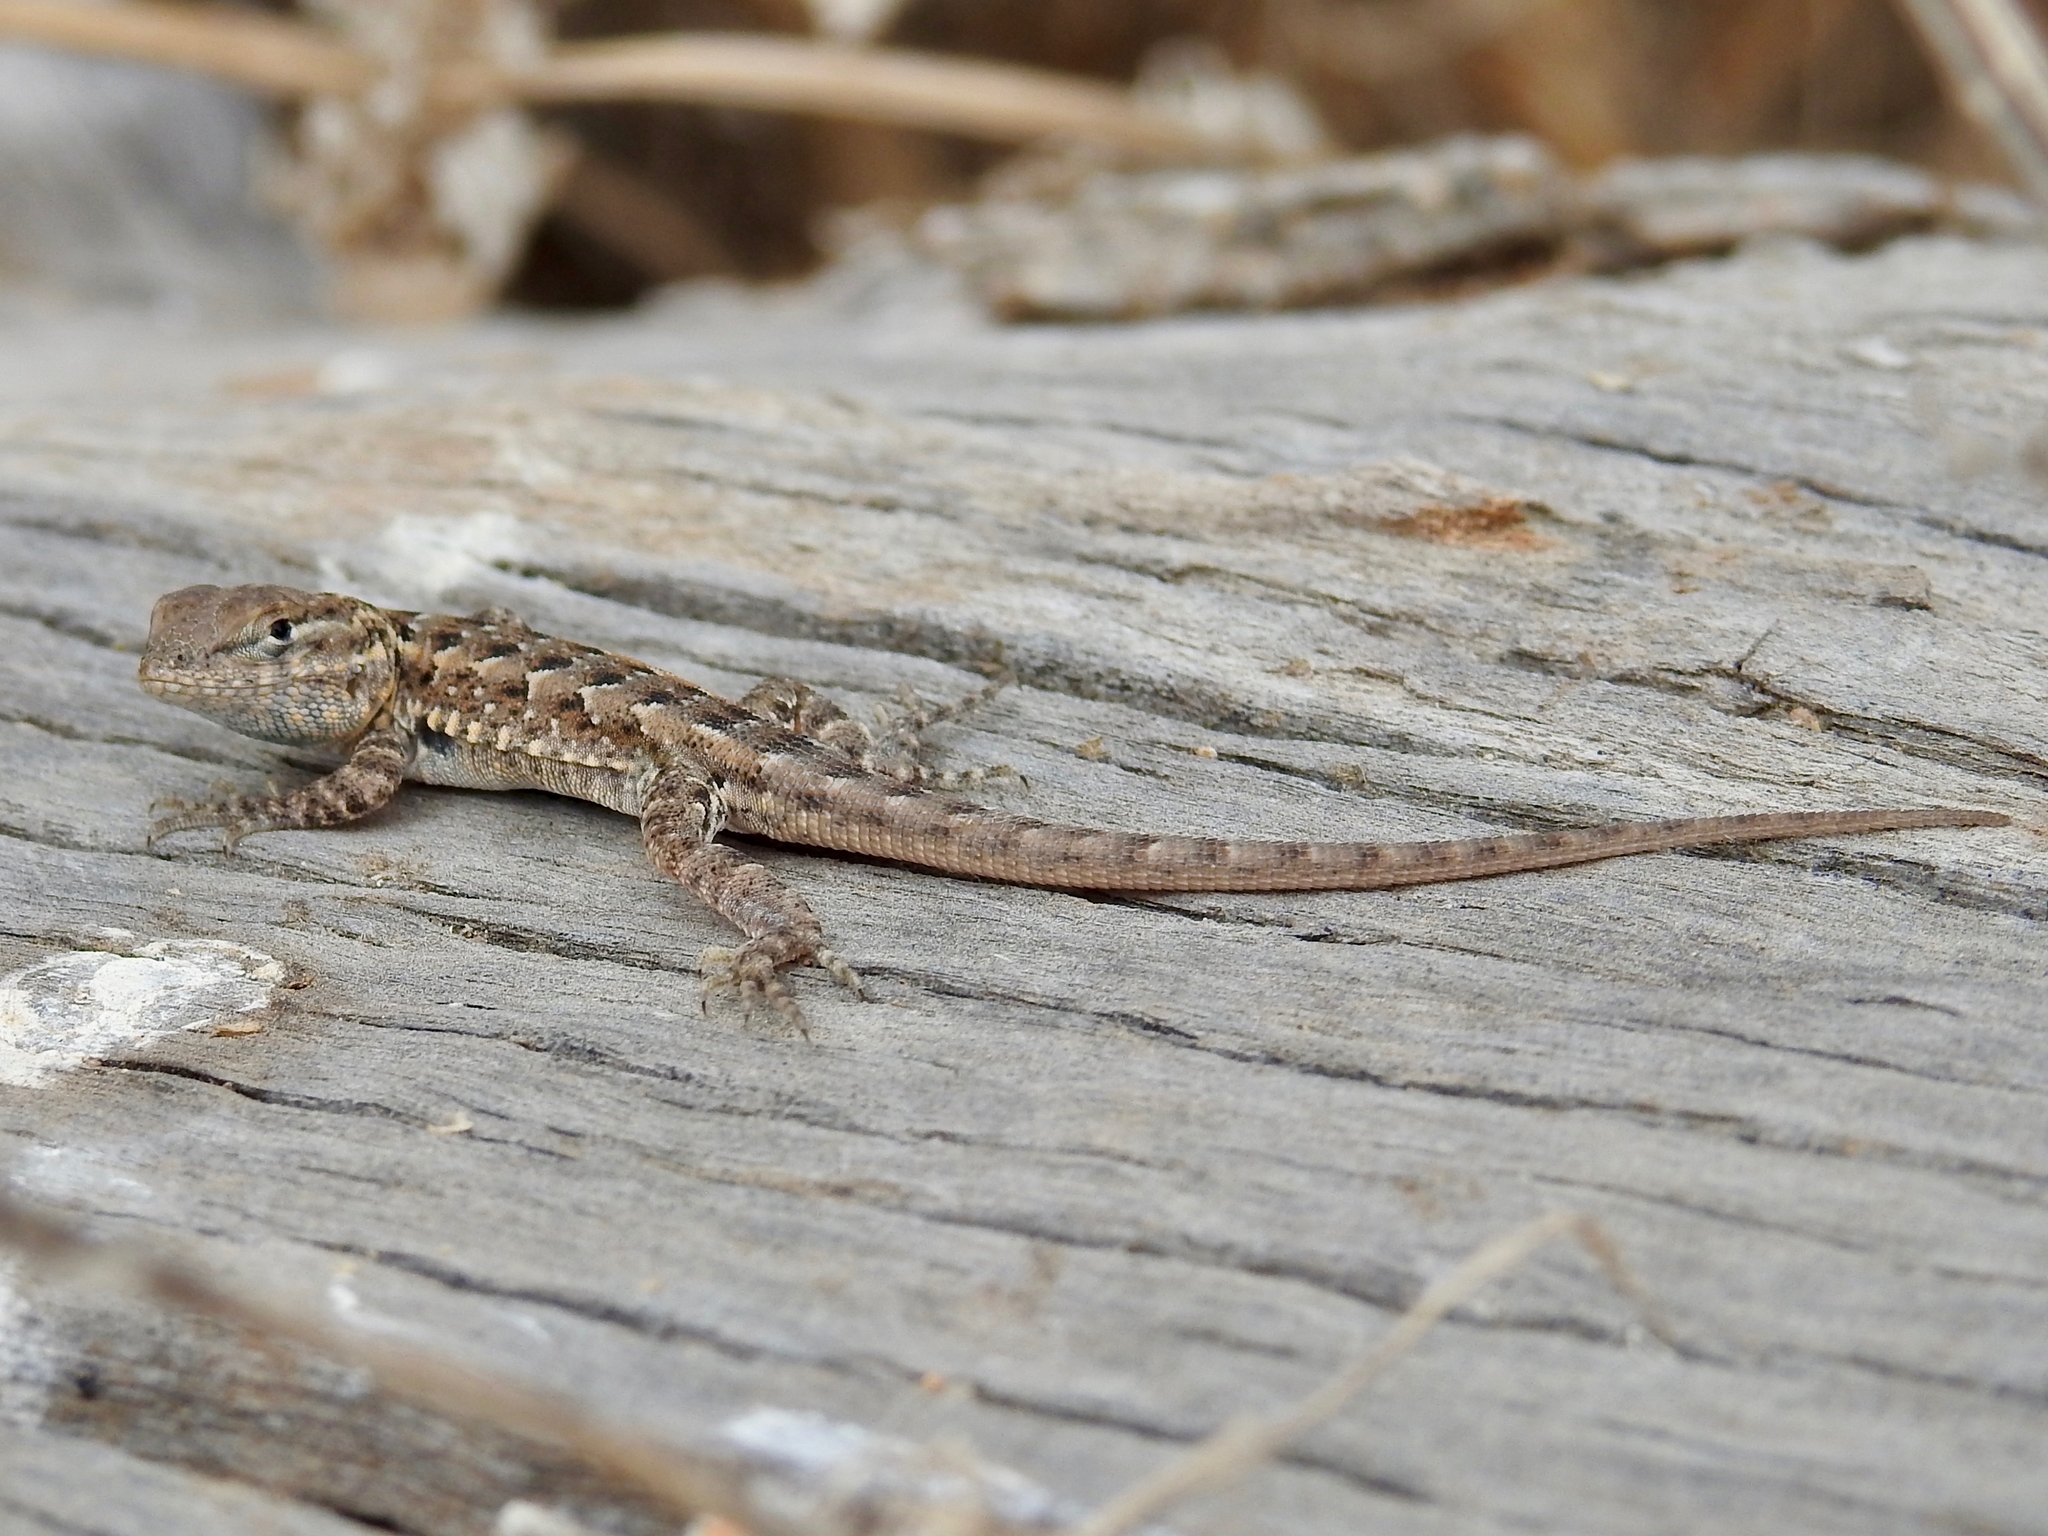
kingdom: Animalia
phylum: Chordata
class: Squamata
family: Phrynosomatidae
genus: Uta
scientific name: Uta stansburiana
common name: Side-blotched lizard
